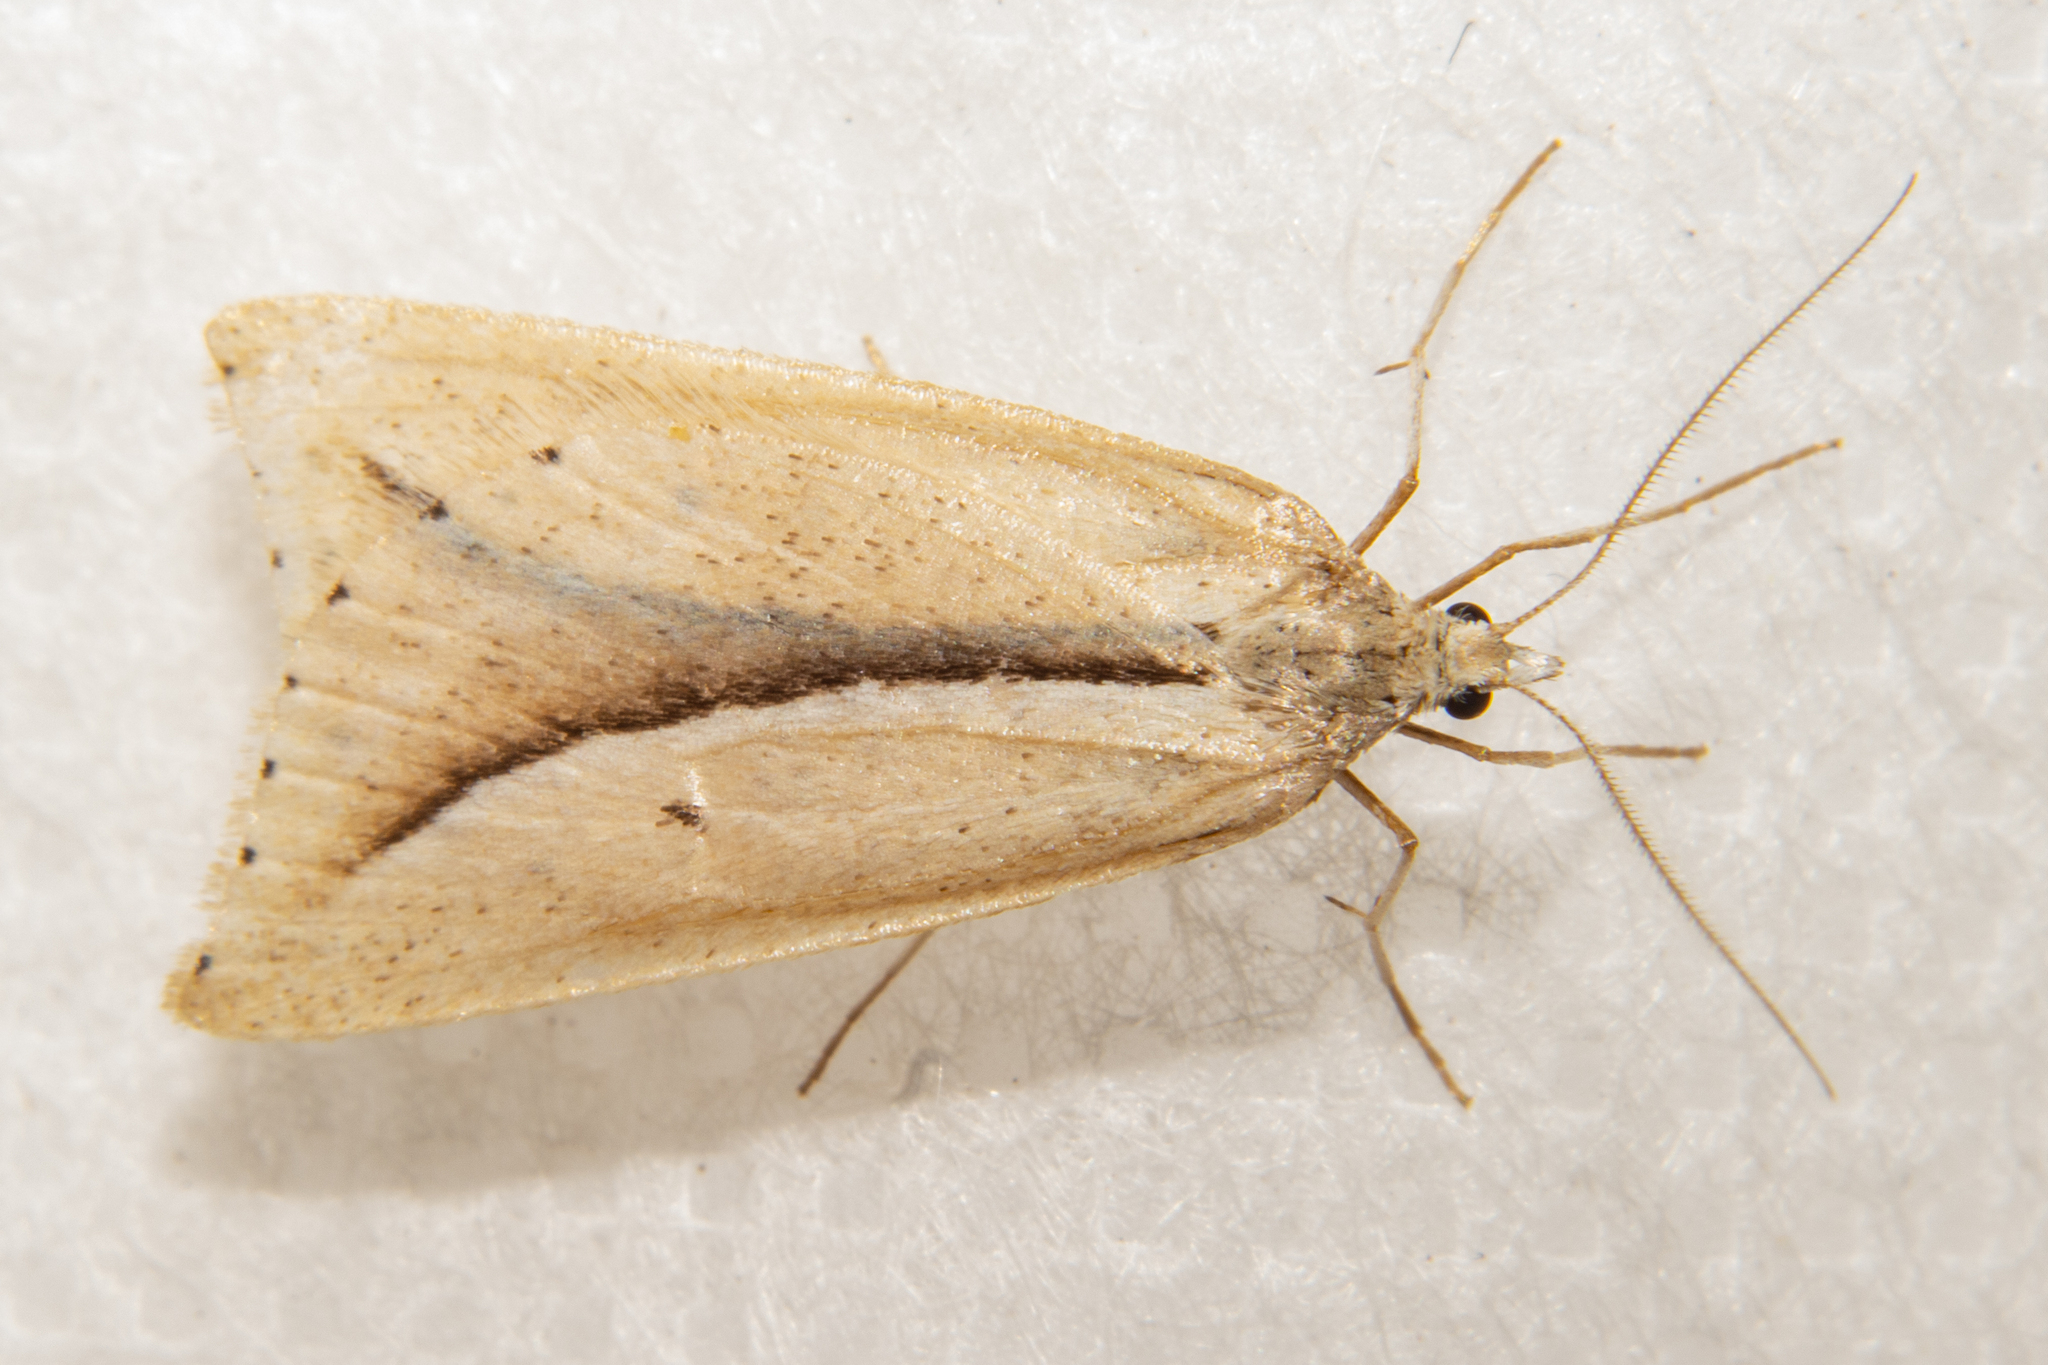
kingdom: Animalia
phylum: Arthropoda
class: Insecta
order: Lepidoptera
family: Geometridae
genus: Theoxena
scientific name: Theoxena scissaria
